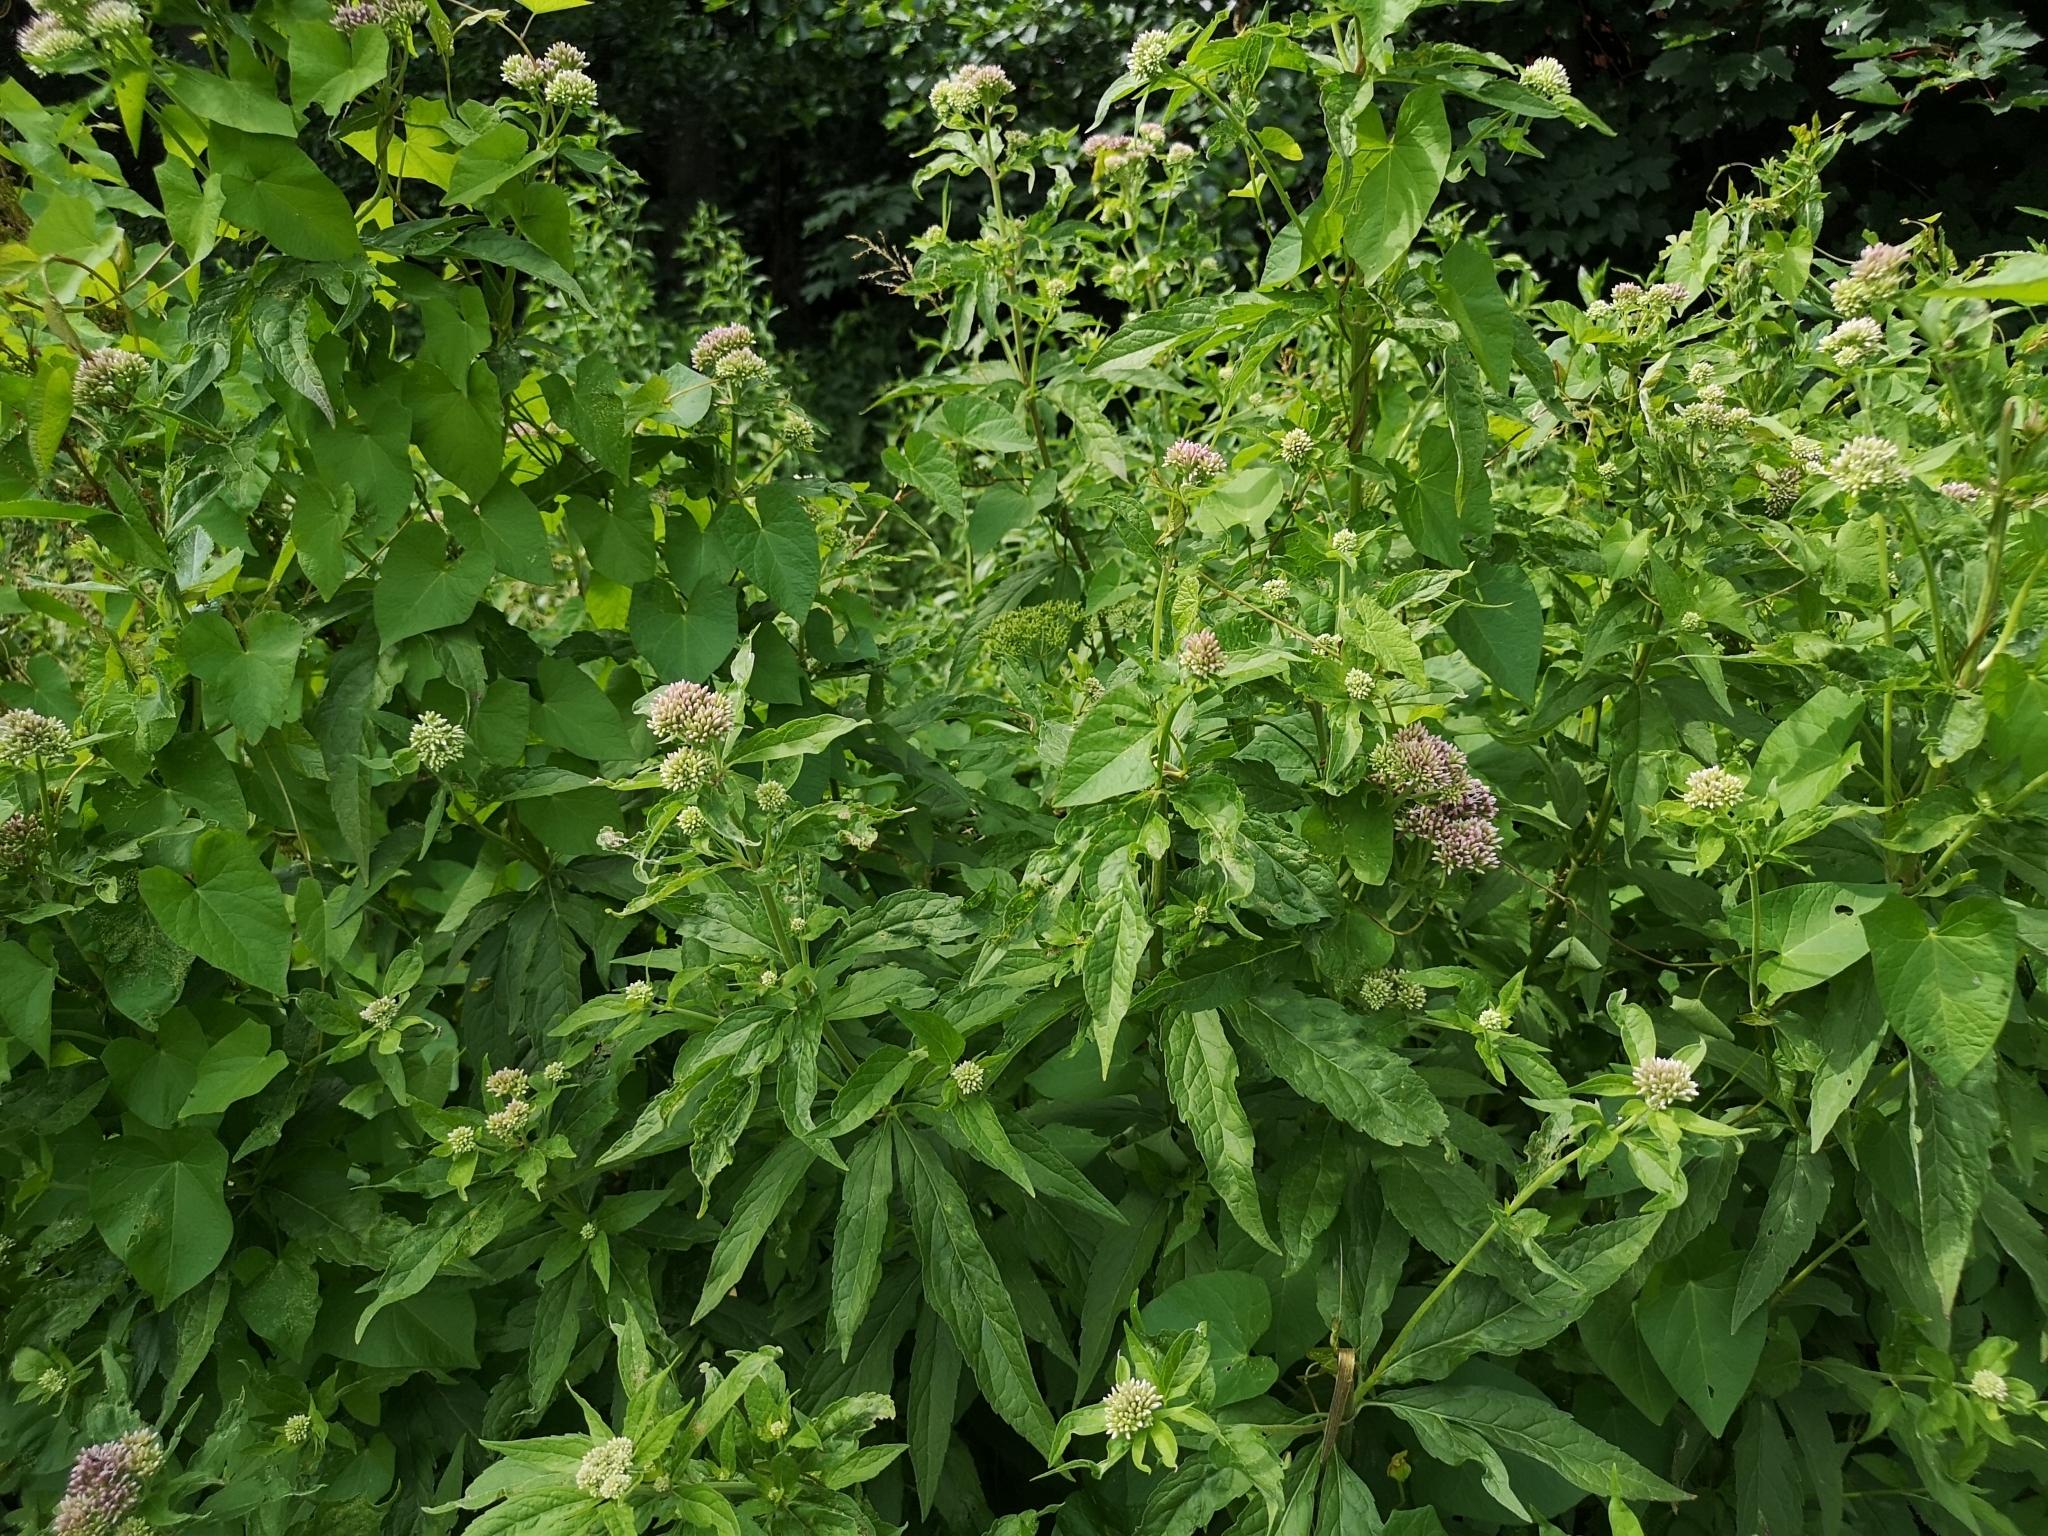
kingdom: Plantae
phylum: Tracheophyta
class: Magnoliopsida
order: Asterales
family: Asteraceae
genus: Eupatorium
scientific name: Eupatorium cannabinum
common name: Hemp-agrimony
